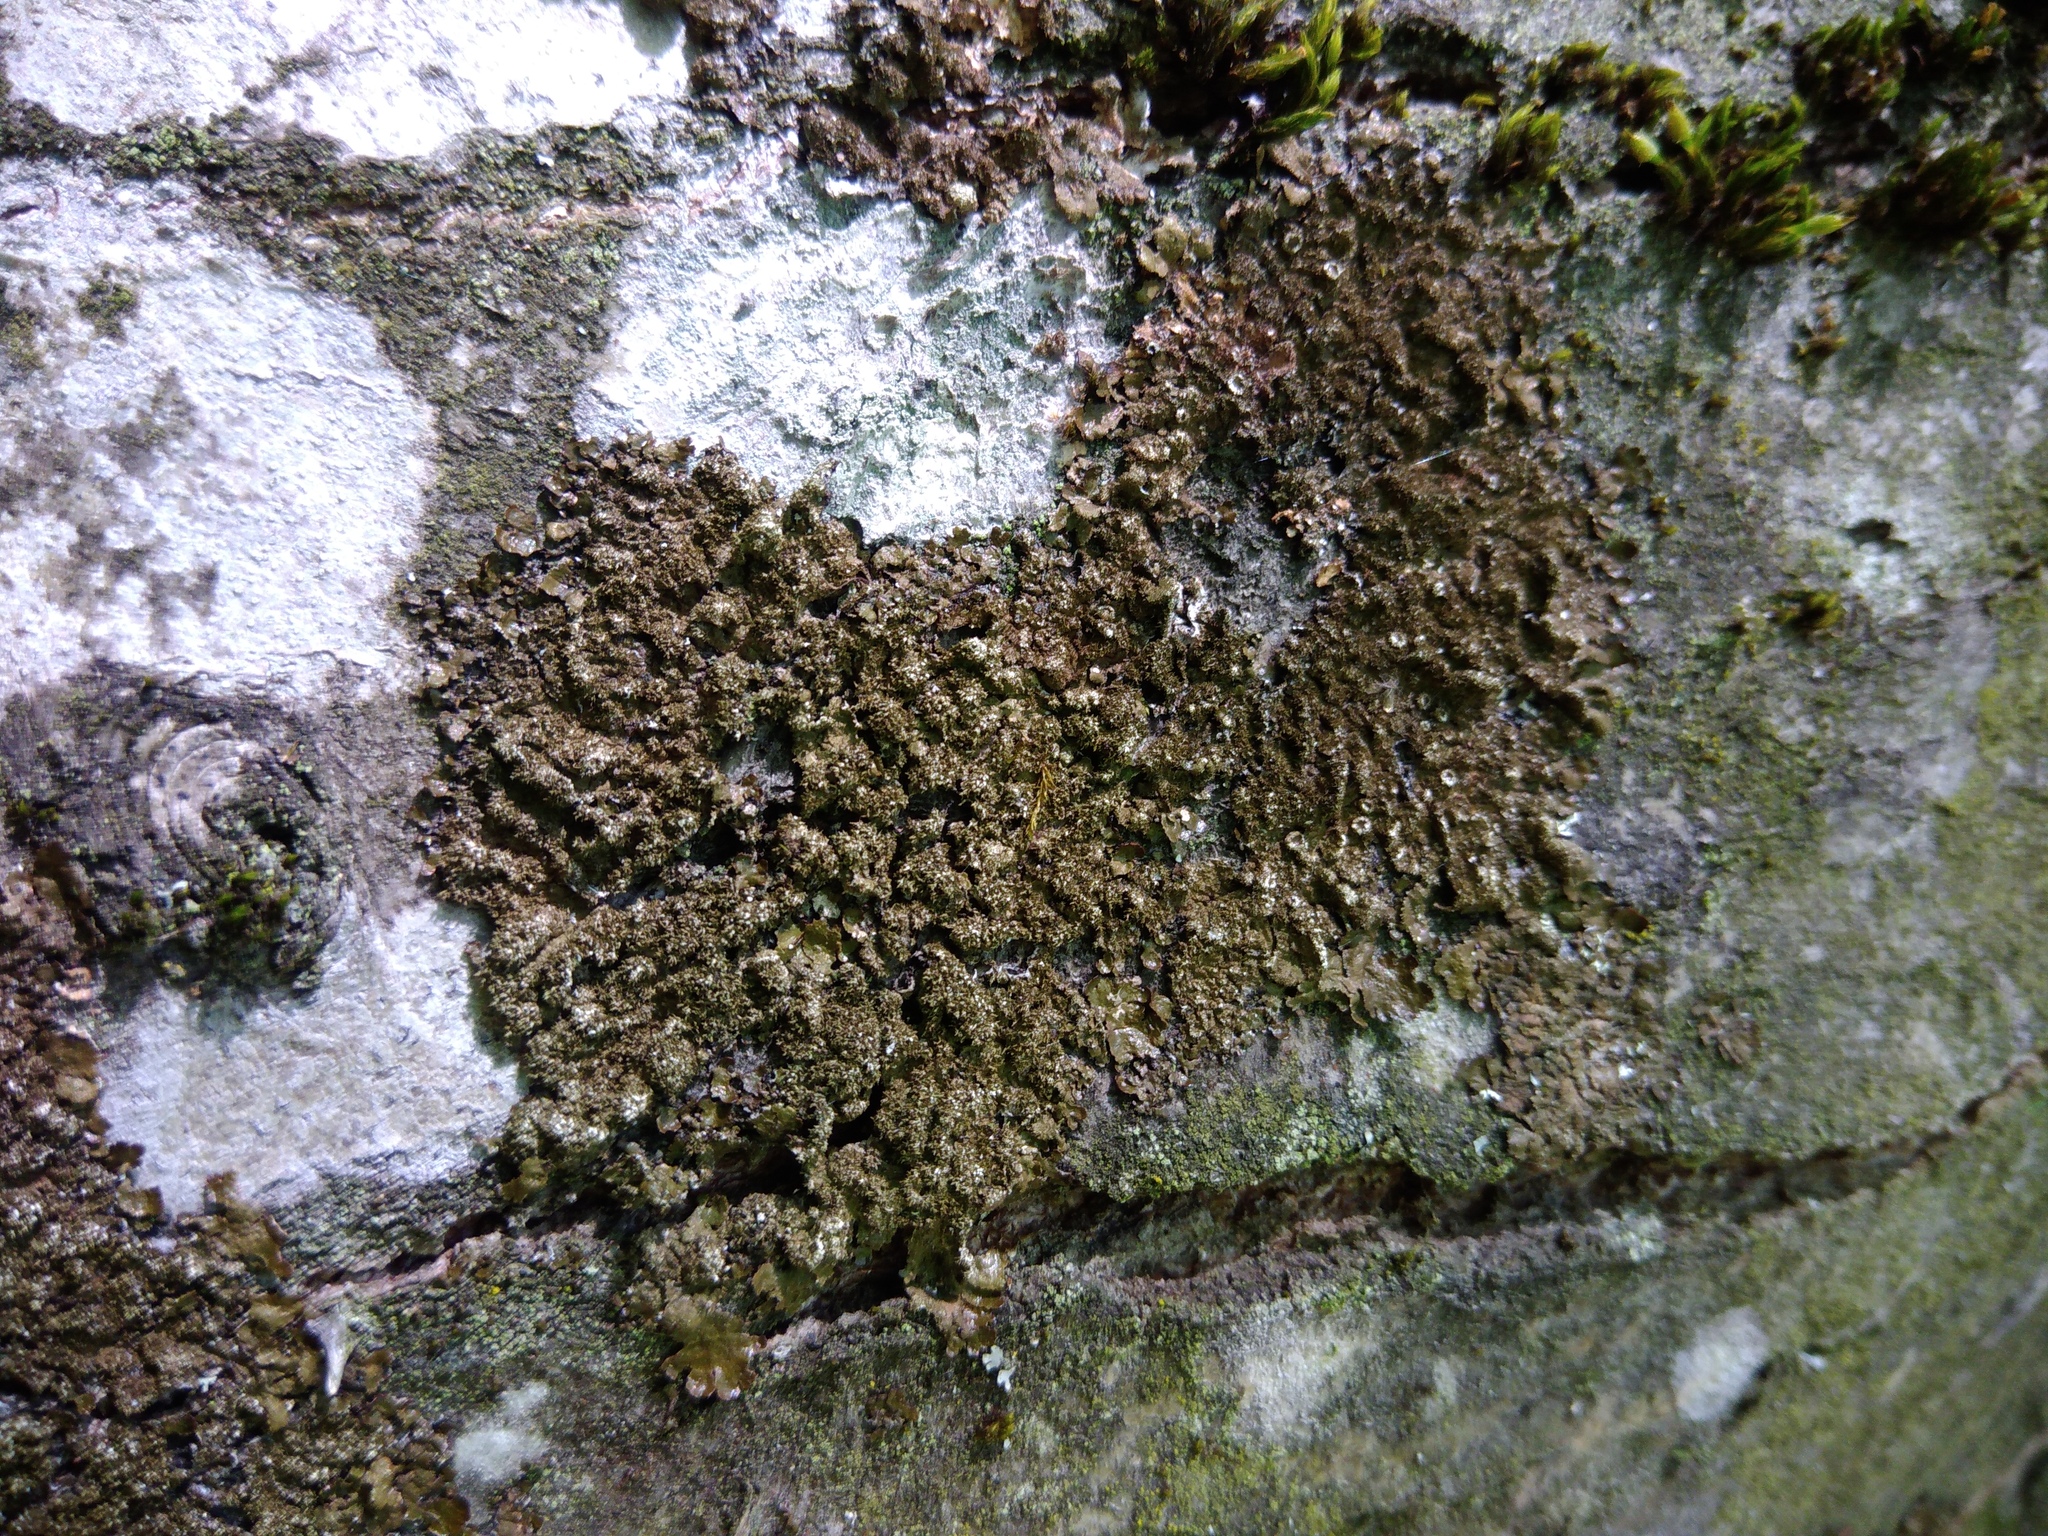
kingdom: Fungi
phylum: Ascomycota
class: Lecanoromycetes
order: Lecanorales
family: Parmeliaceae
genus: Melanelixia
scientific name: Melanelixia glabratula
